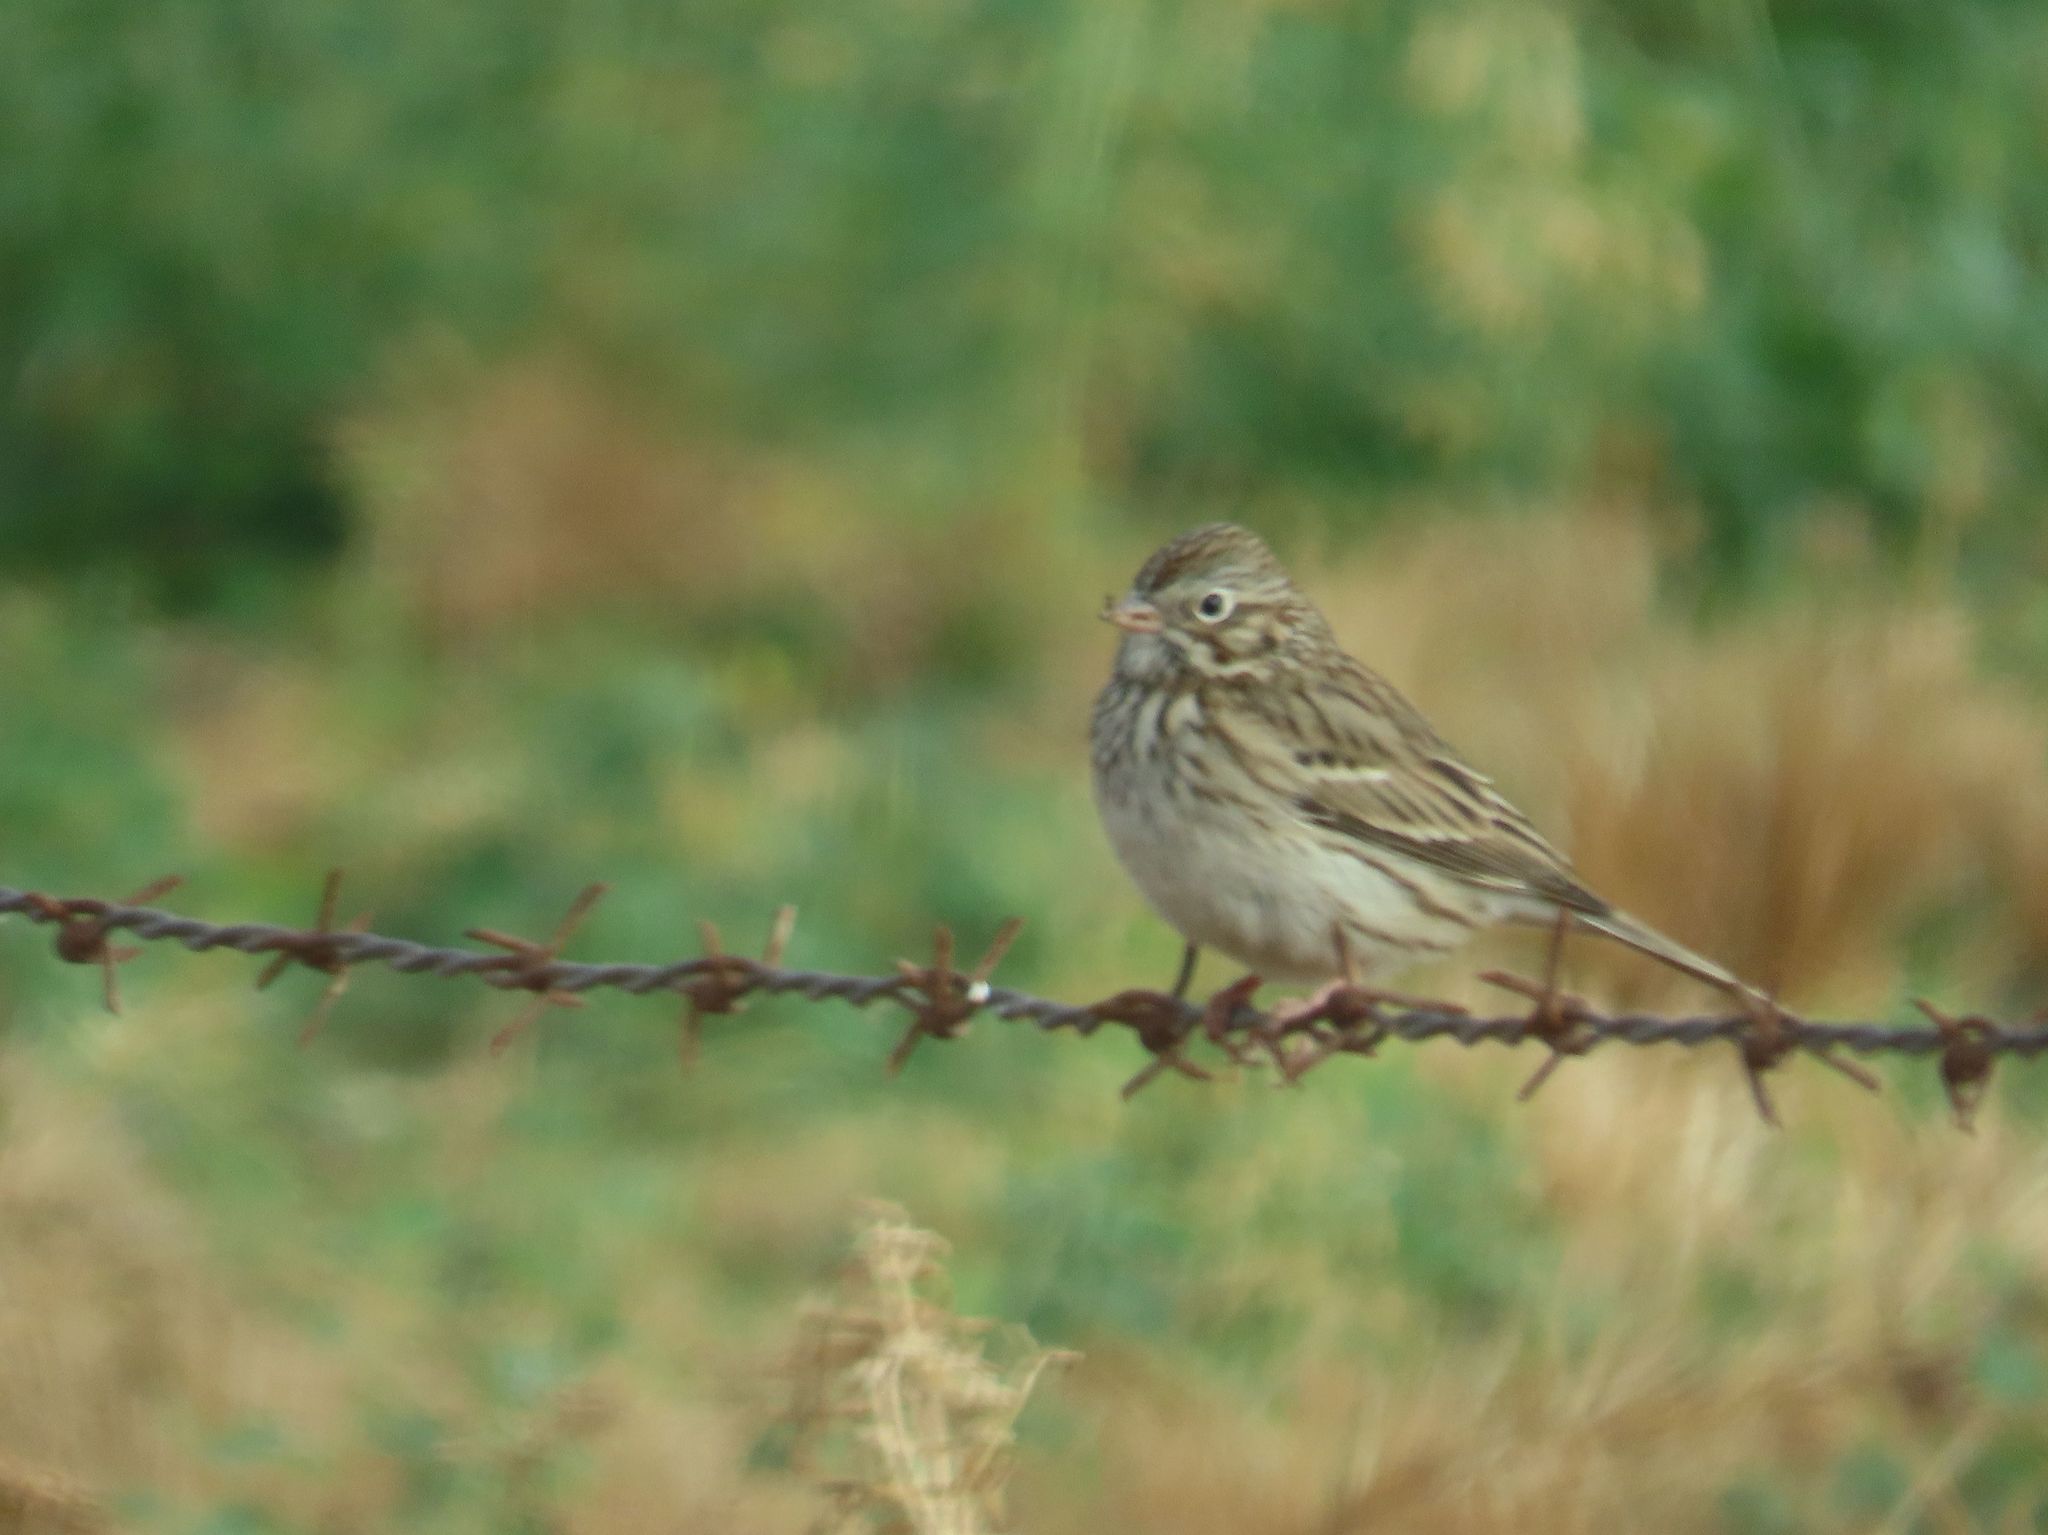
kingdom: Animalia
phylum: Chordata
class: Aves
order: Passeriformes
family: Passerellidae
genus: Pooecetes
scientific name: Pooecetes gramineus
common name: Vesper sparrow
